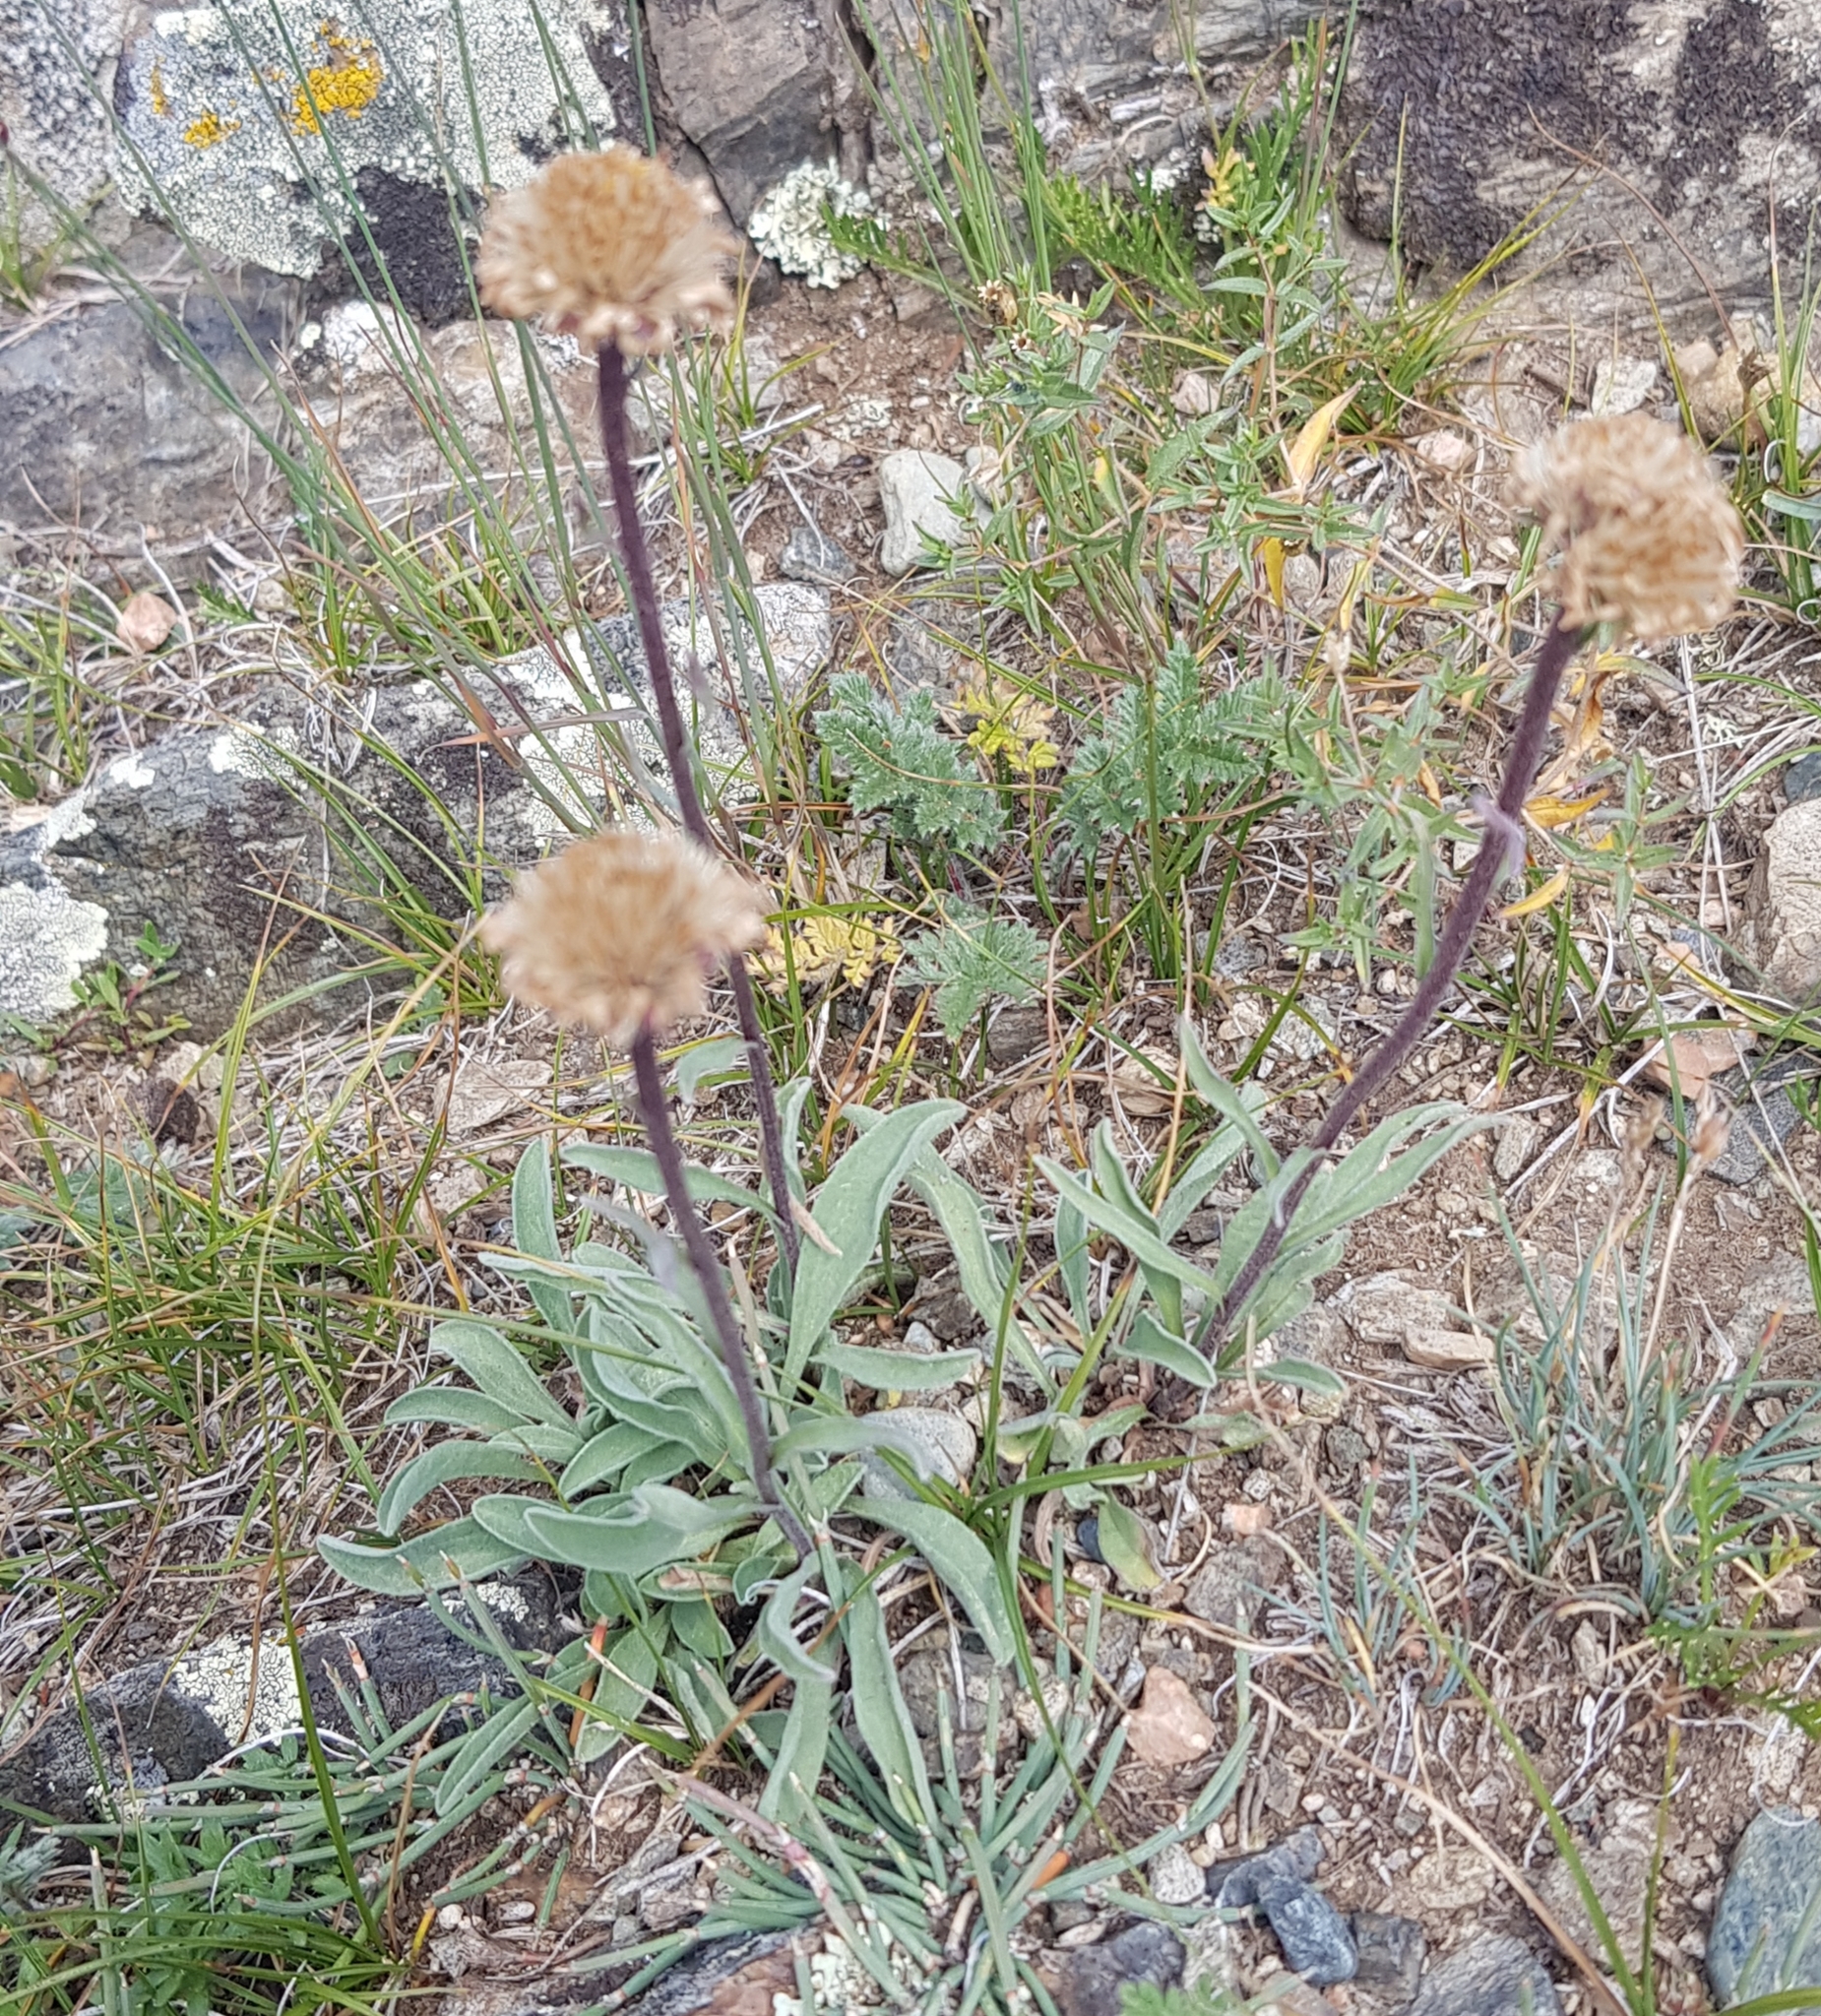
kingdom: Plantae
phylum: Tracheophyta
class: Magnoliopsida
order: Asterales
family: Asteraceae
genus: Aster
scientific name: Aster alpinus
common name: Alpine aster
